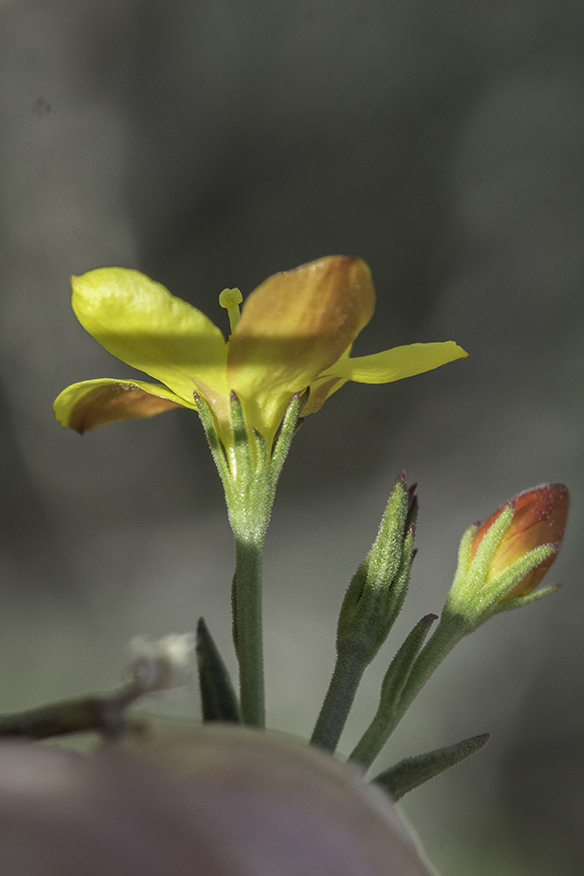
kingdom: Plantae
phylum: Tracheophyta
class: Magnoliopsida
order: Lamiales
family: Oleaceae
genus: Menodora
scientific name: Menodora scabra
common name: Rough menodora
